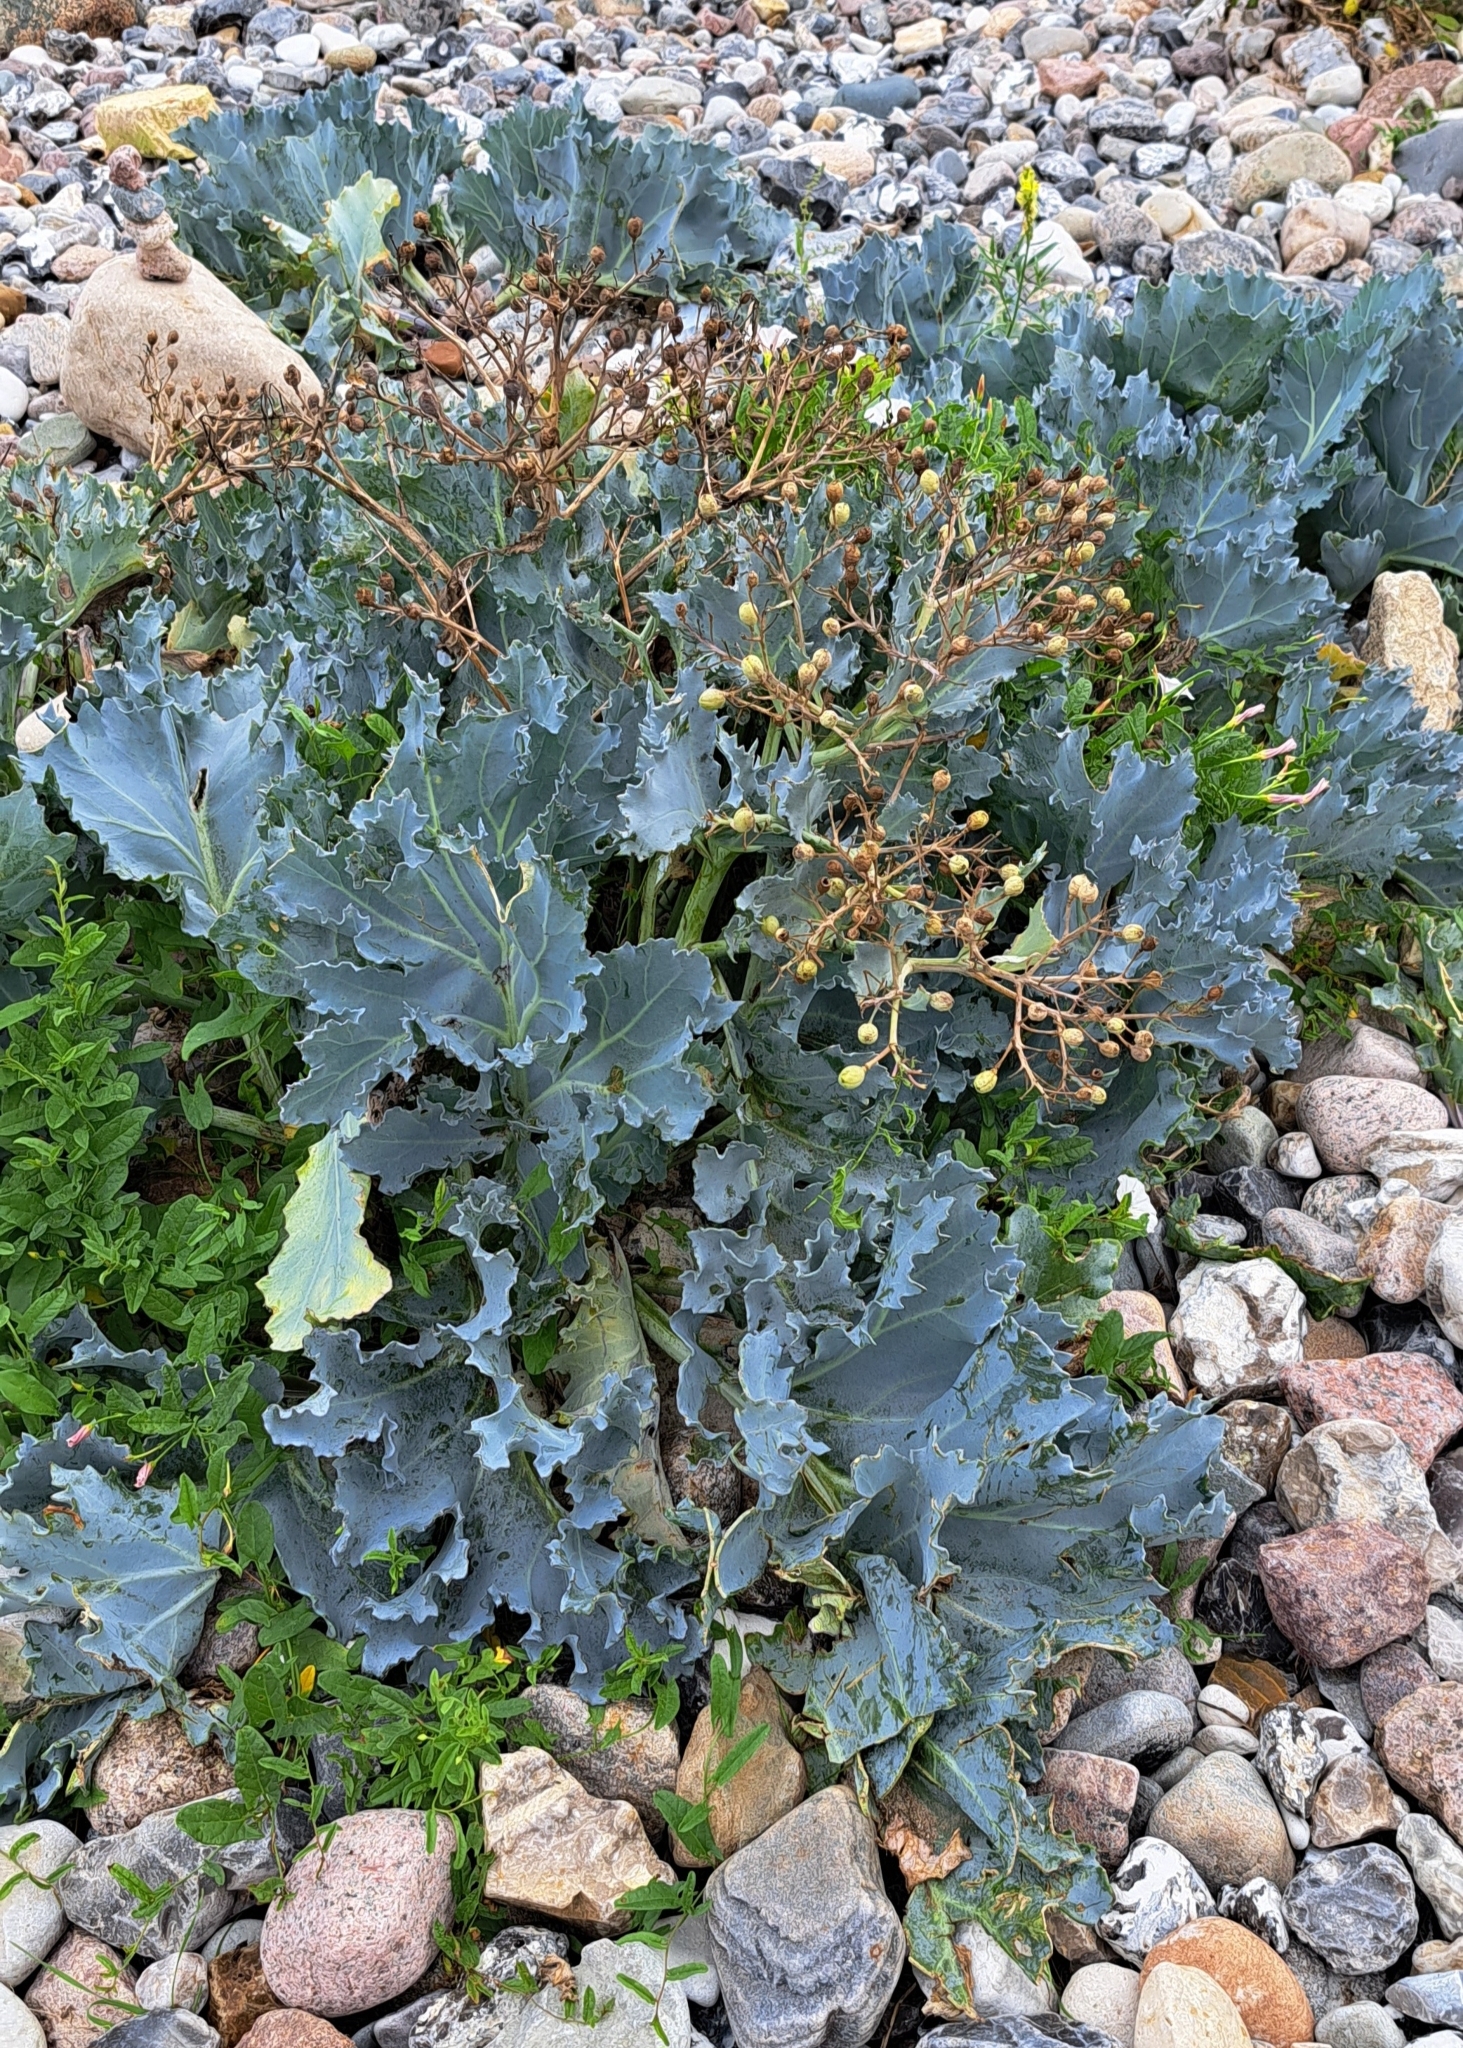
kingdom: Plantae
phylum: Tracheophyta
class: Magnoliopsida
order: Brassicales
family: Brassicaceae
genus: Crambe
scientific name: Crambe maritima
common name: Sea-kale
